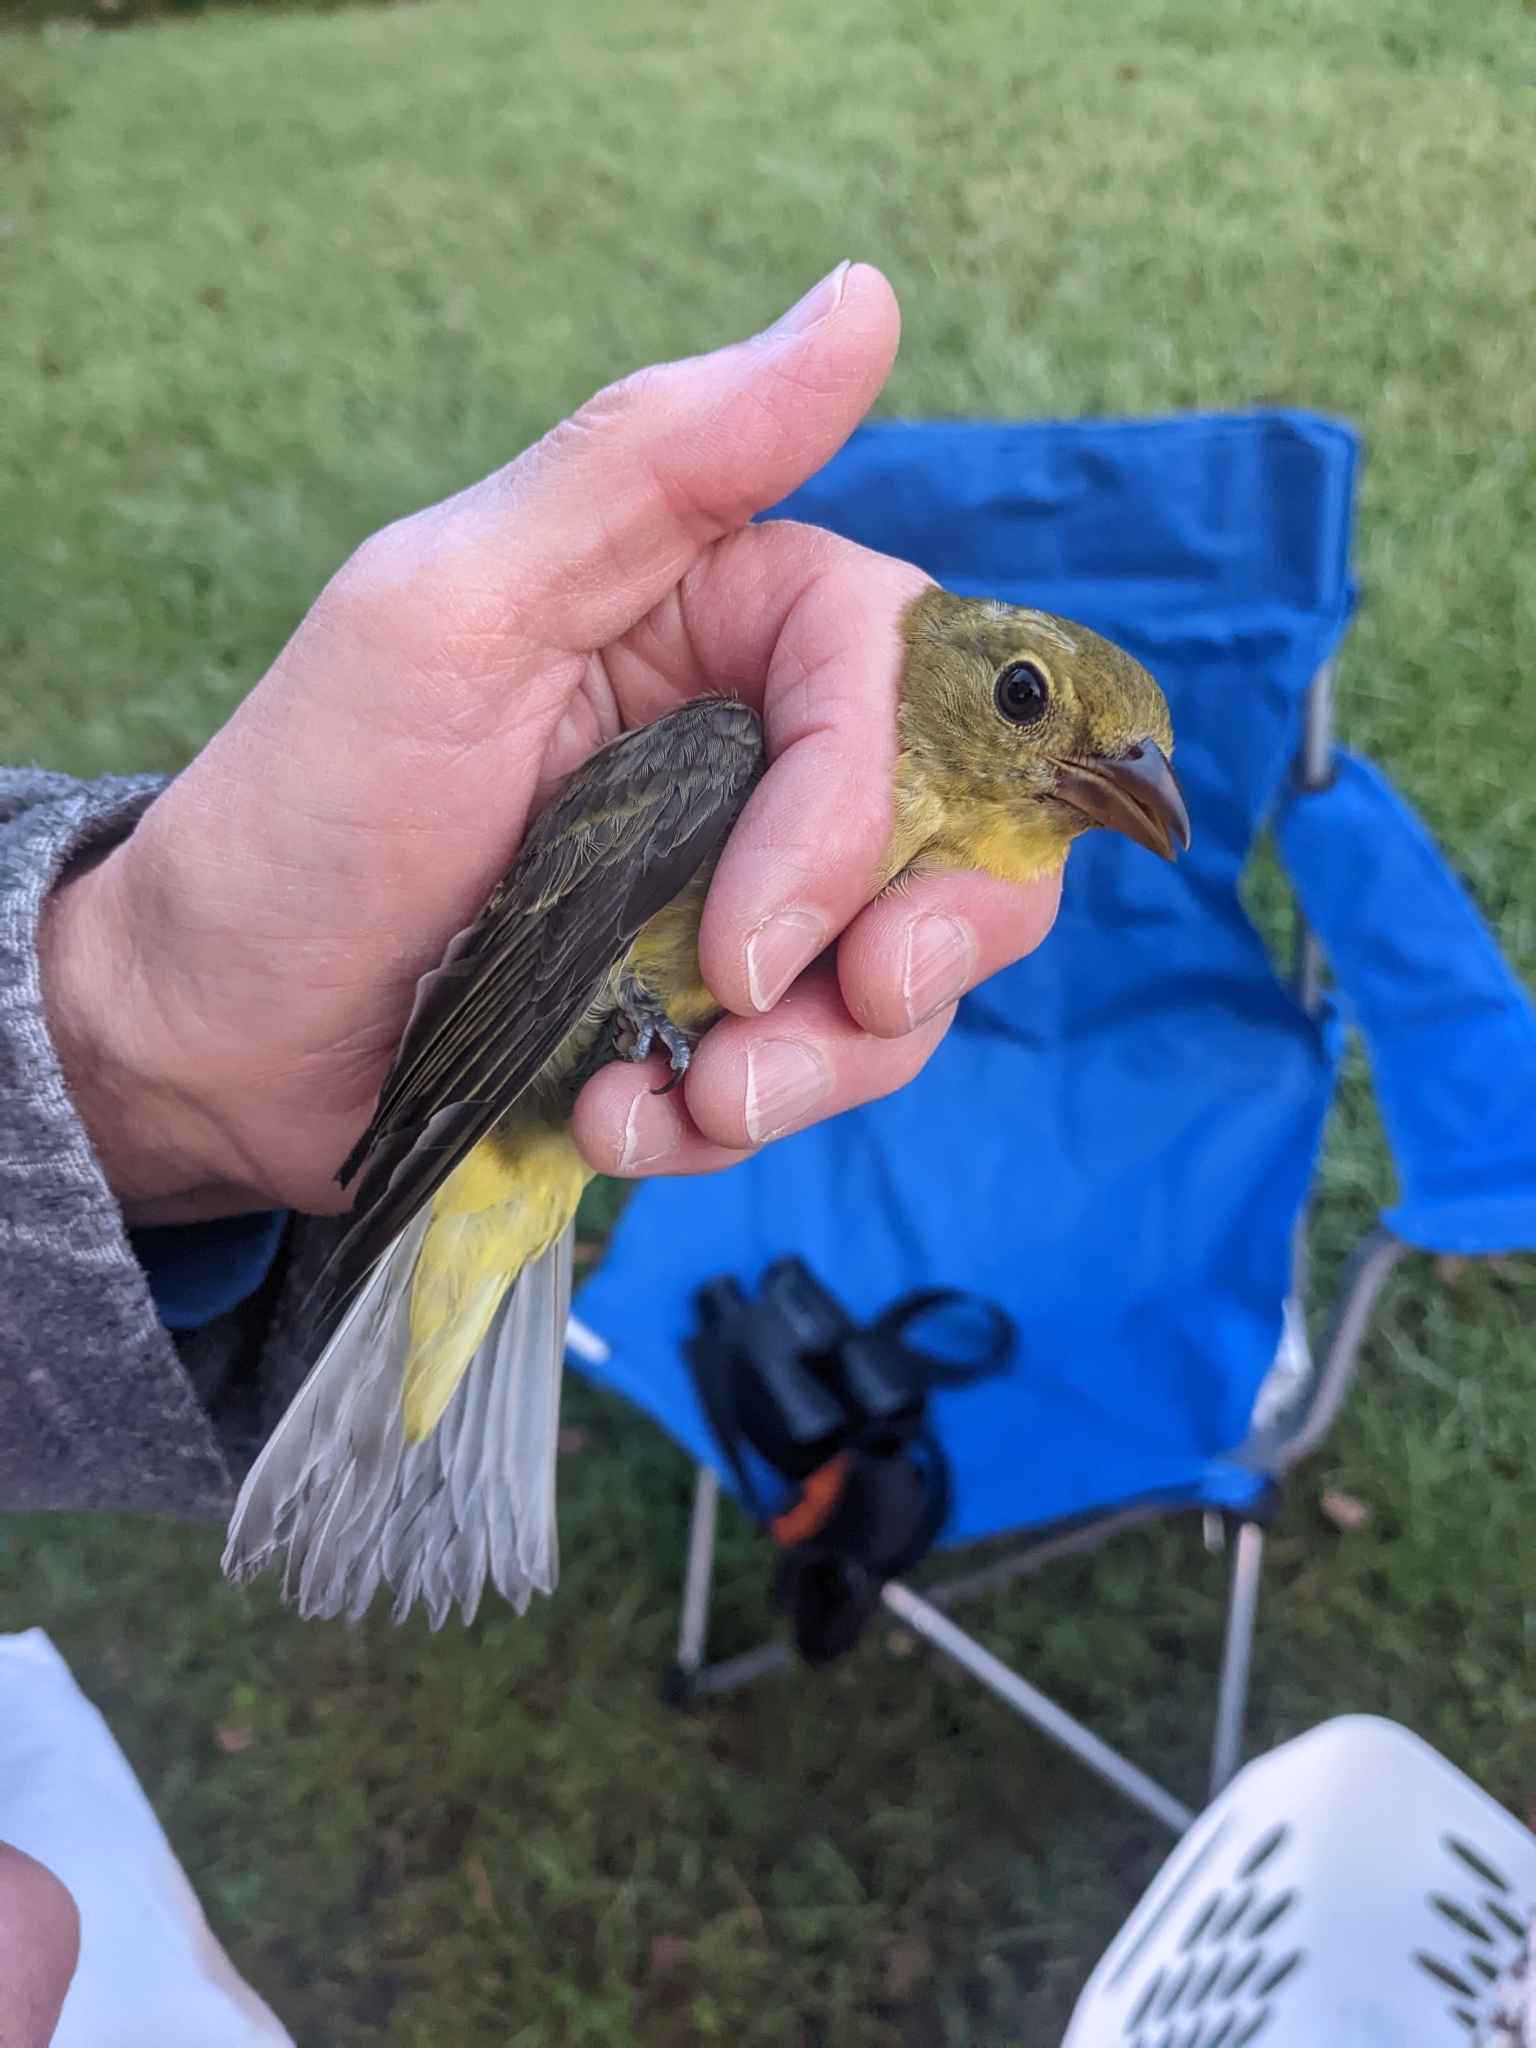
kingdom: Animalia
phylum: Chordata
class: Aves
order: Passeriformes
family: Cardinalidae
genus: Piranga
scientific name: Piranga olivacea
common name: Scarlet tanager
